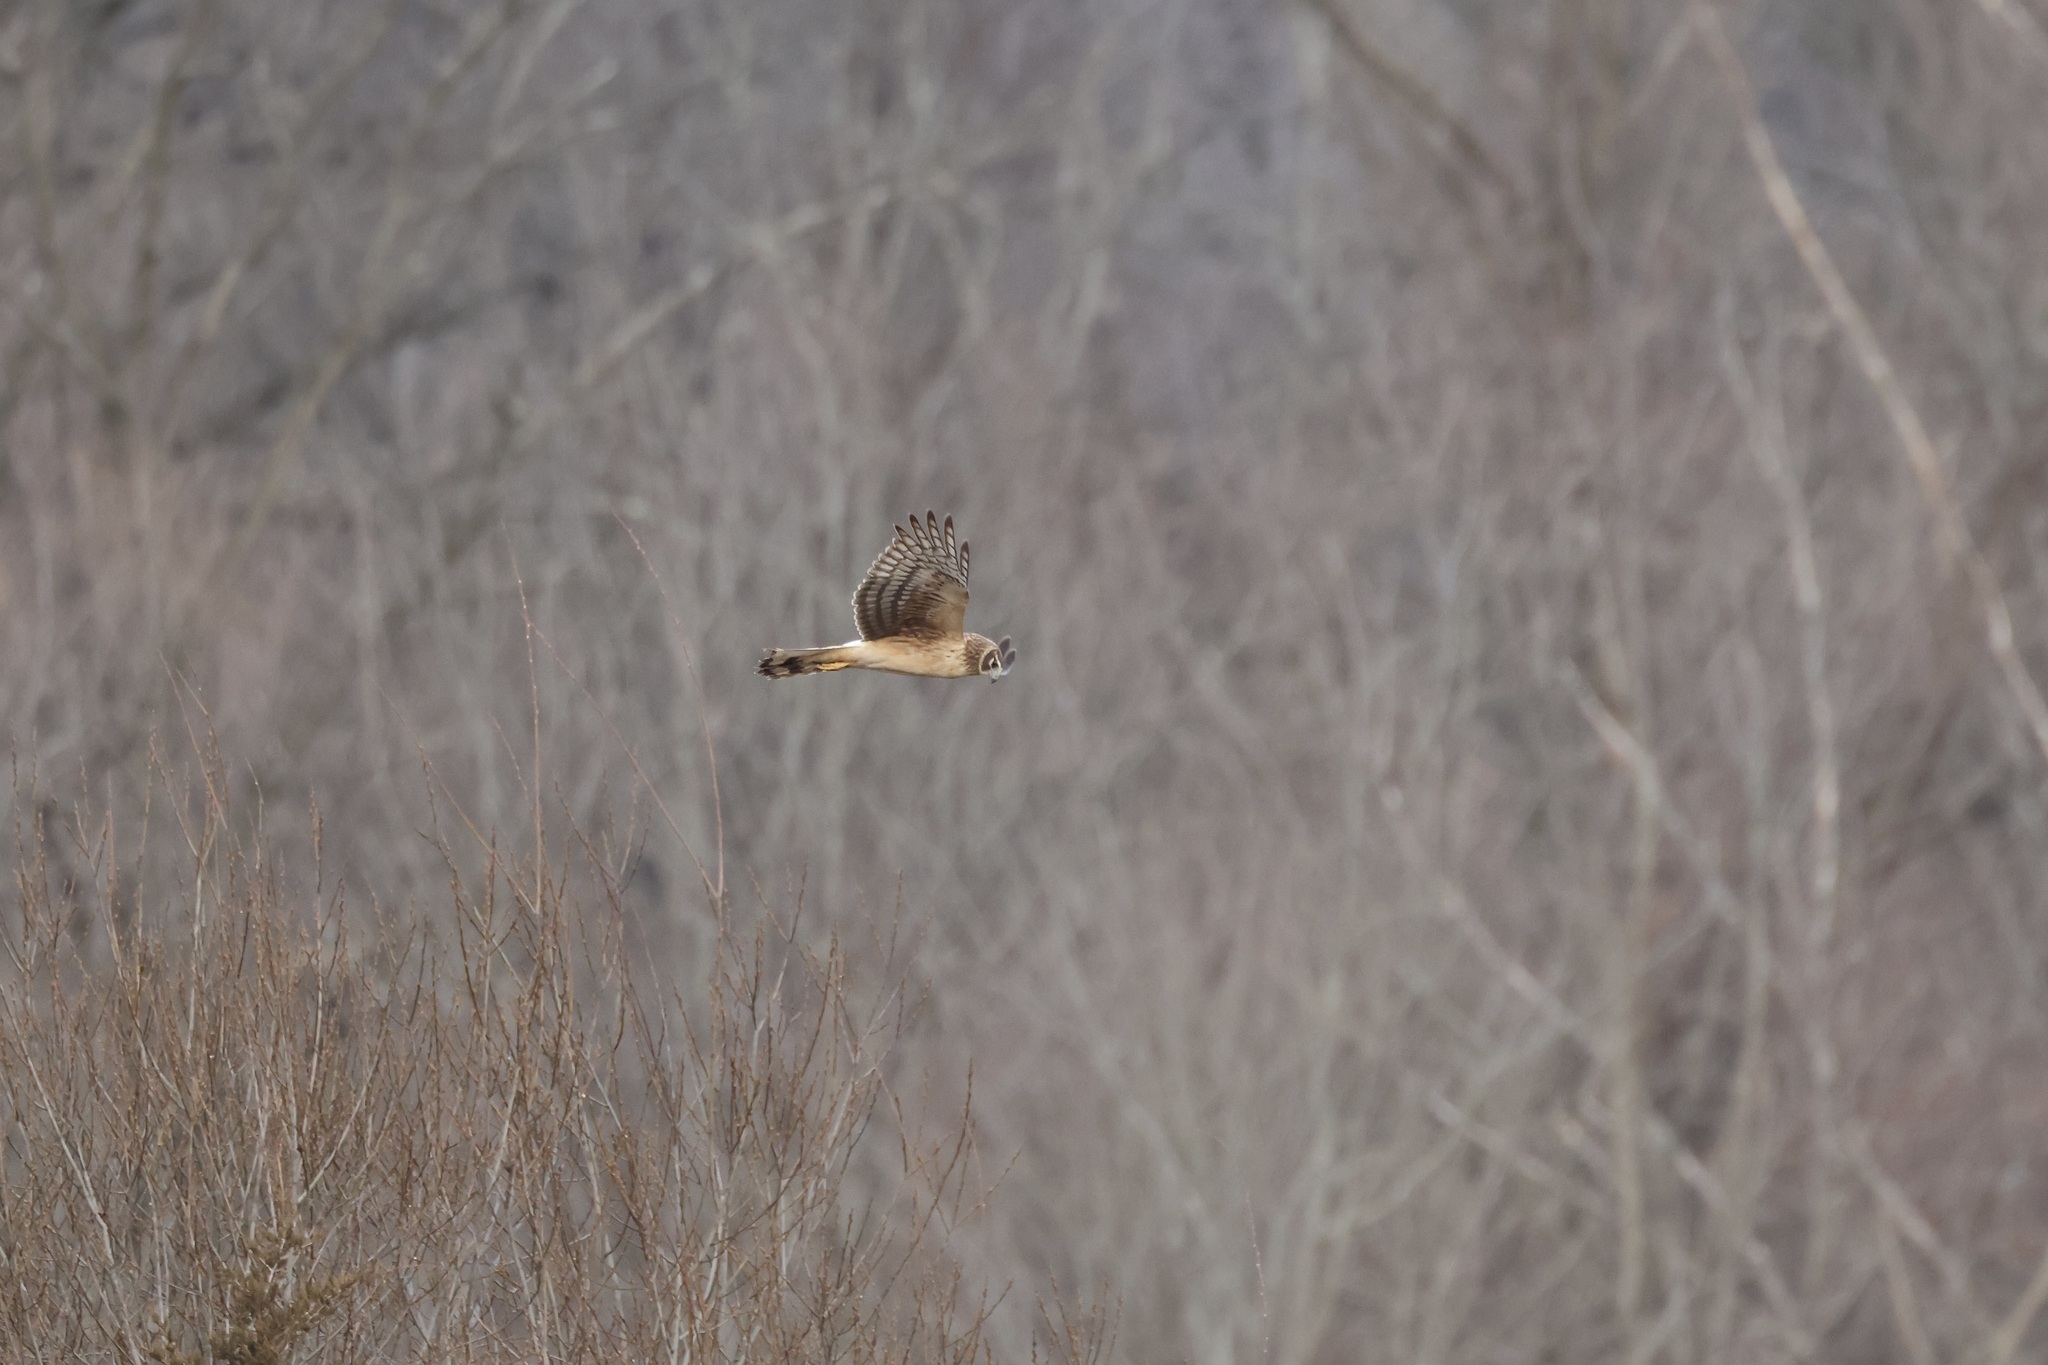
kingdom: Animalia
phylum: Chordata
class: Aves
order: Accipitriformes
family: Accipitridae
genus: Circus
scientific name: Circus cyaneus
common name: Hen harrier
